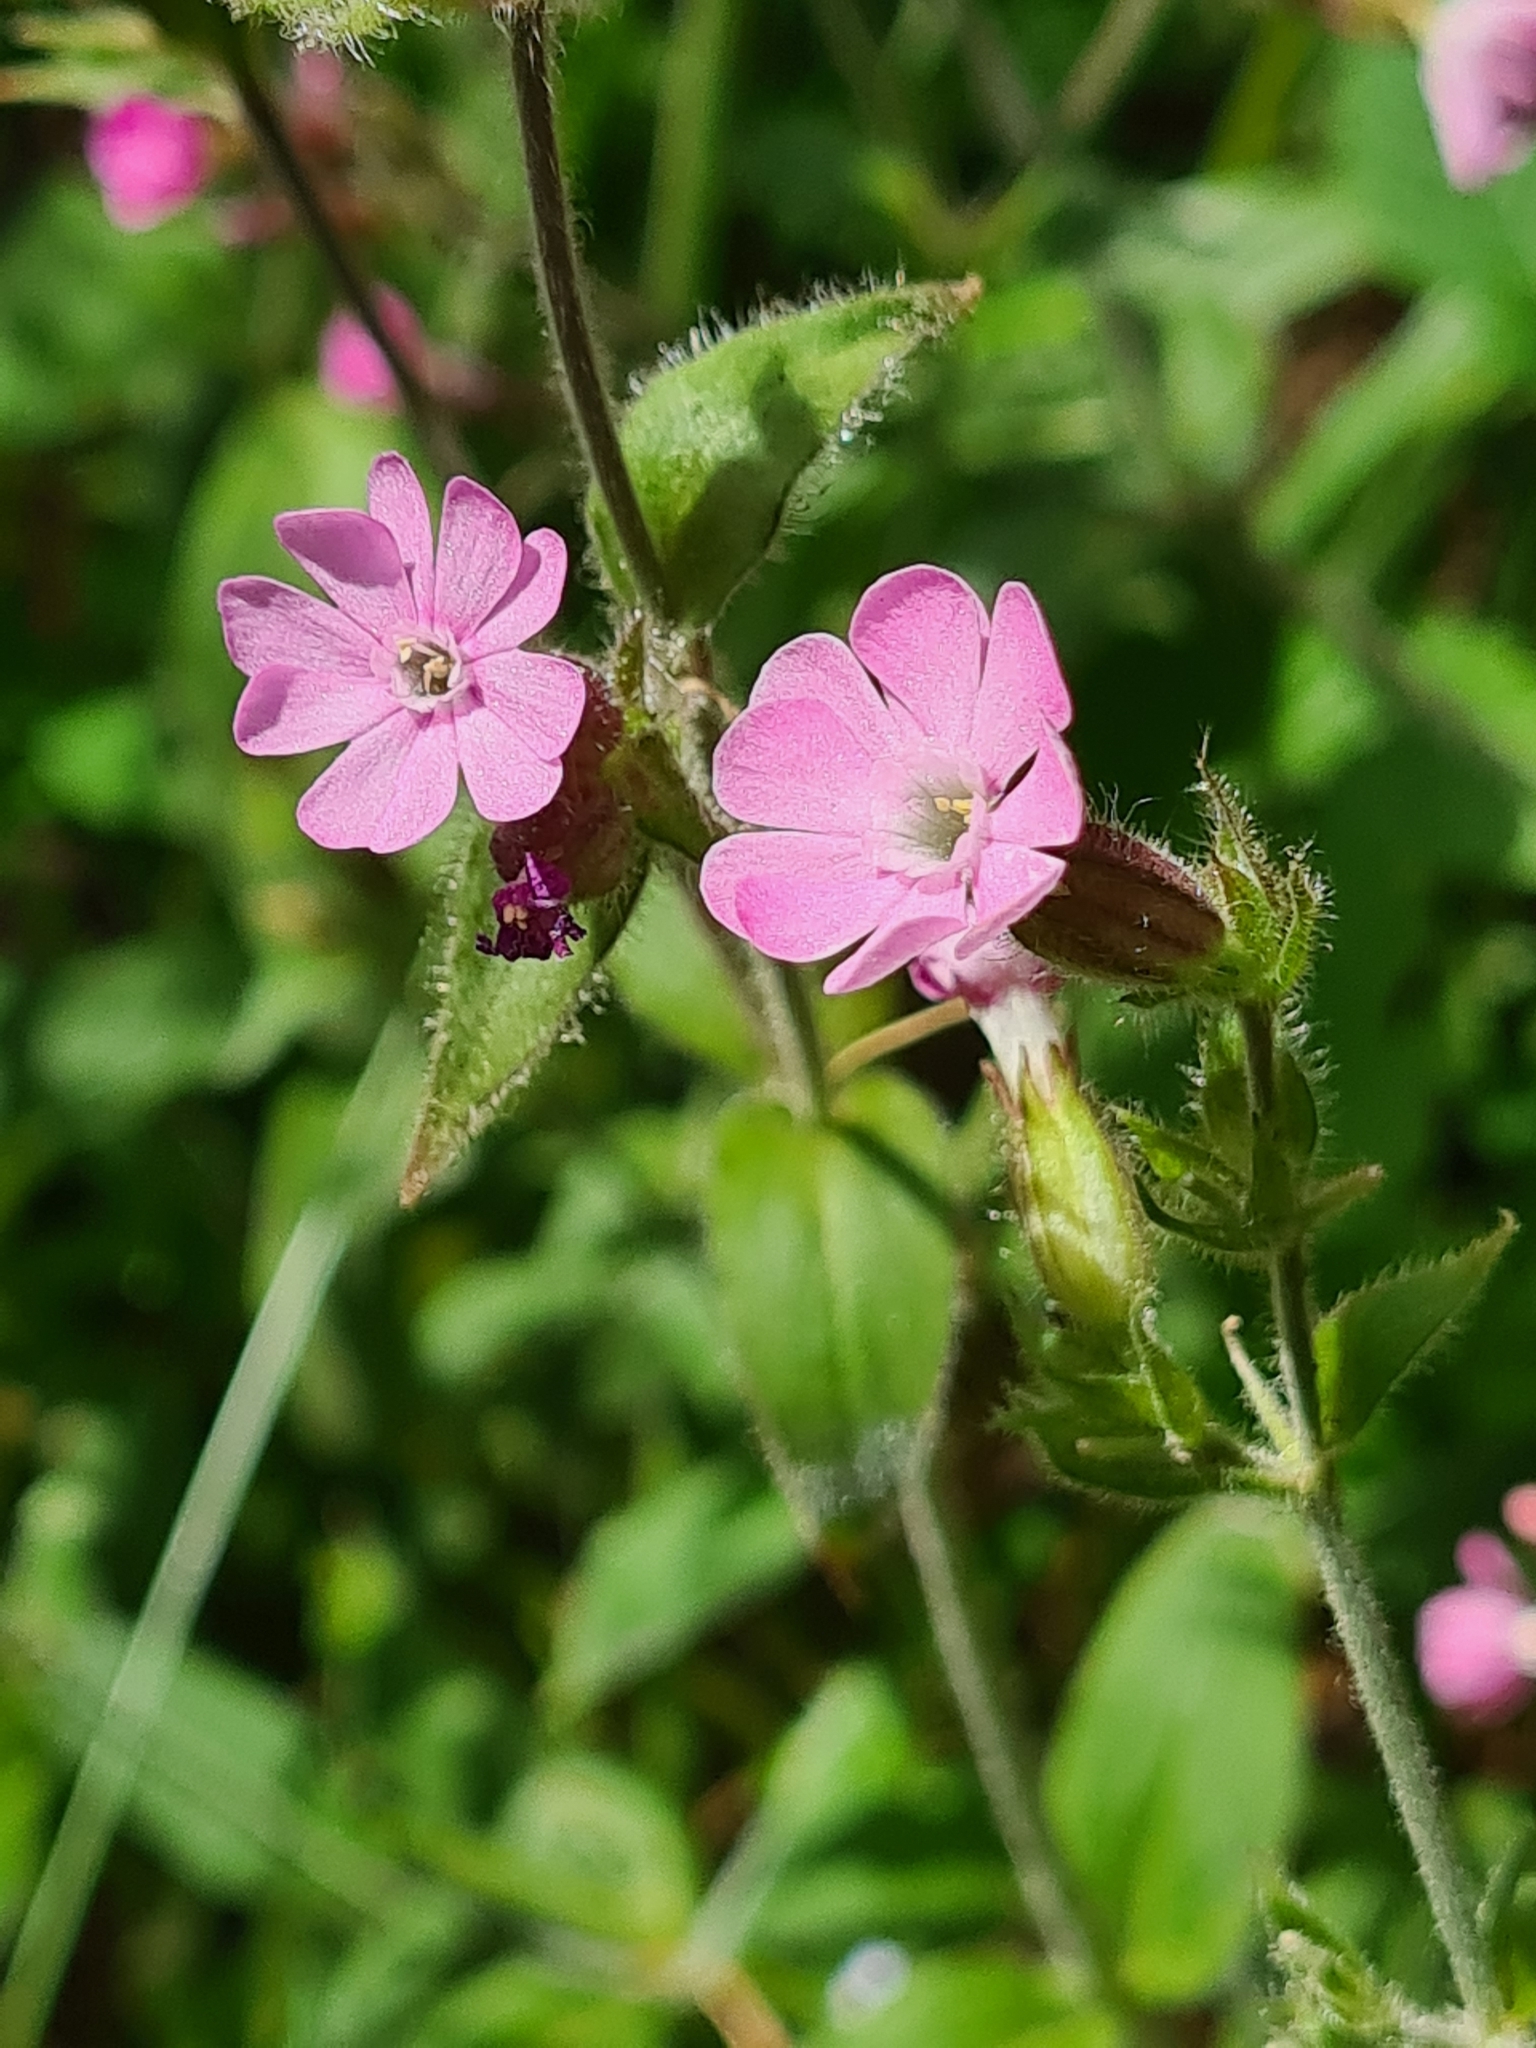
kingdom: Plantae
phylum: Tracheophyta
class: Magnoliopsida
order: Caryophyllales
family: Caryophyllaceae
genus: Silene
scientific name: Silene dioica
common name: Red campion
